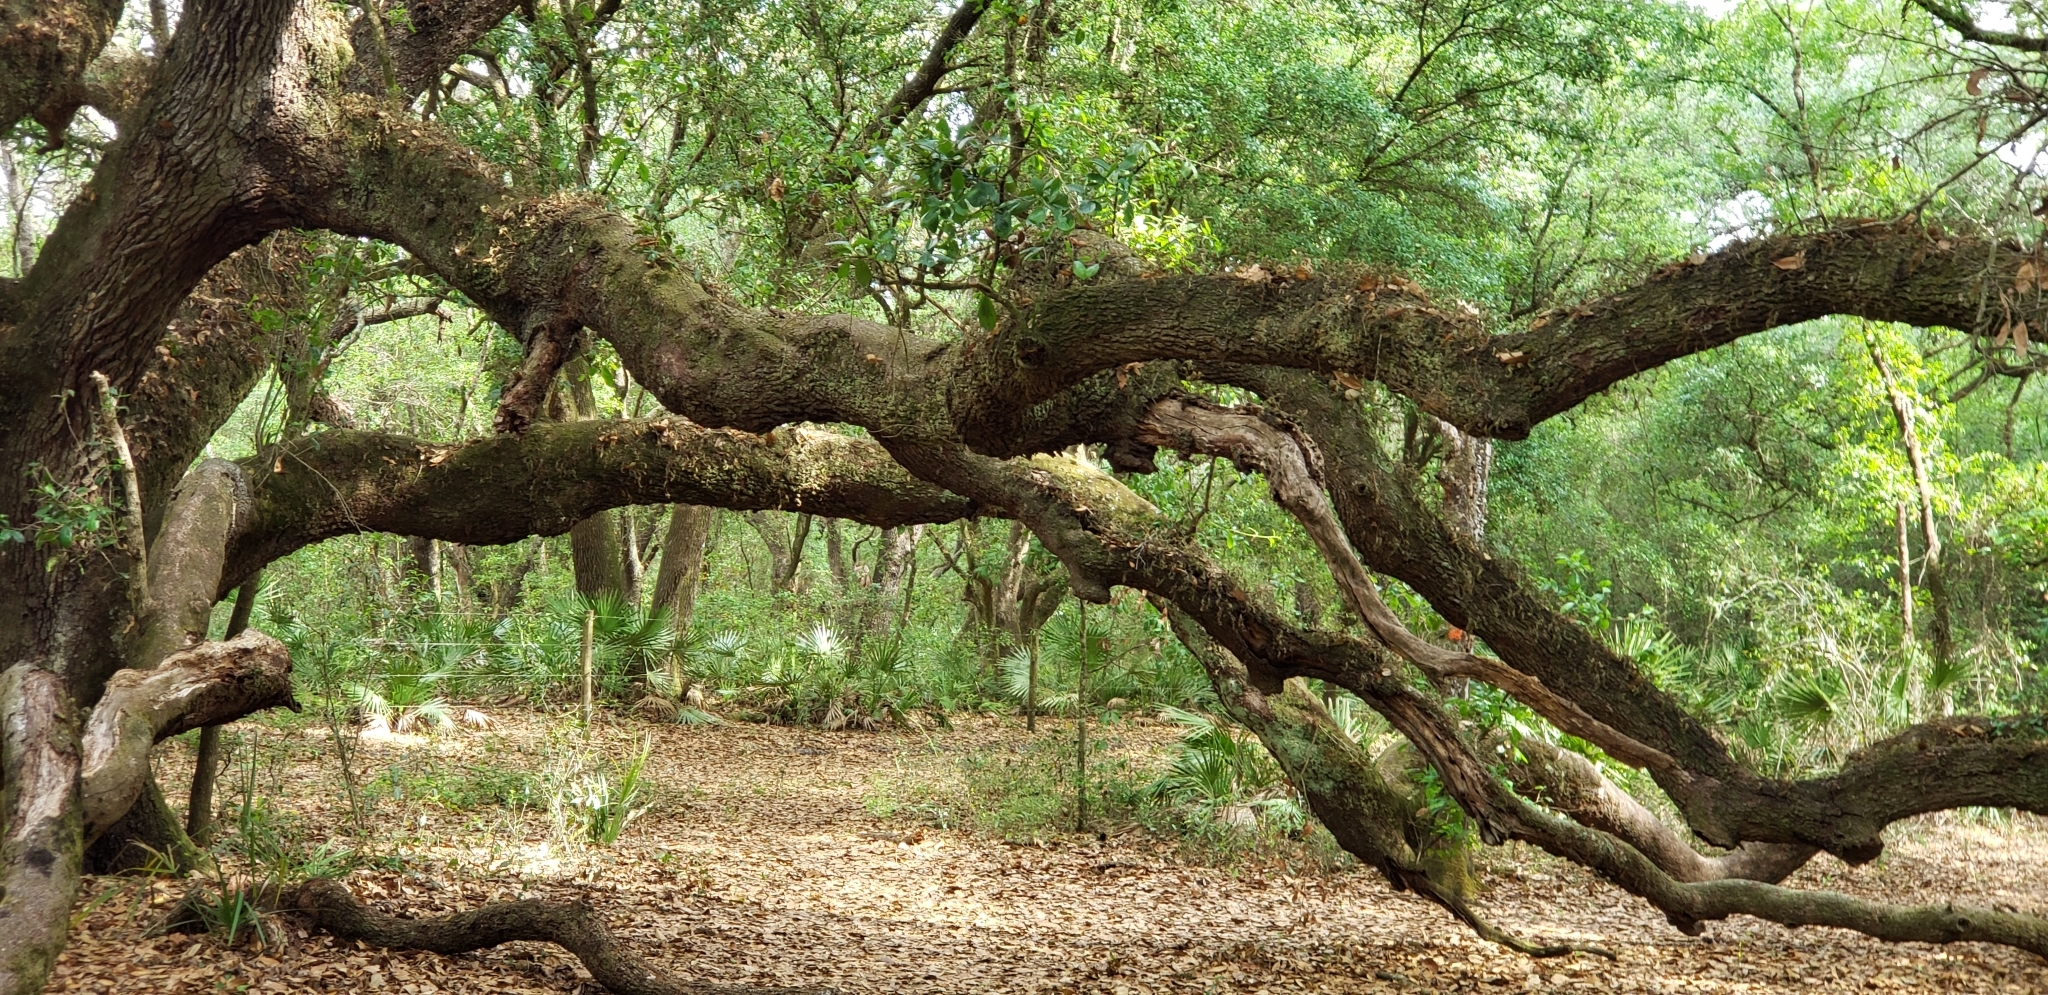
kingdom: Plantae
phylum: Tracheophyta
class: Magnoliopsida
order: Fagales
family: Fagaceae
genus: Quercus
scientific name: Quercus virginiana
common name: Southern live oak
